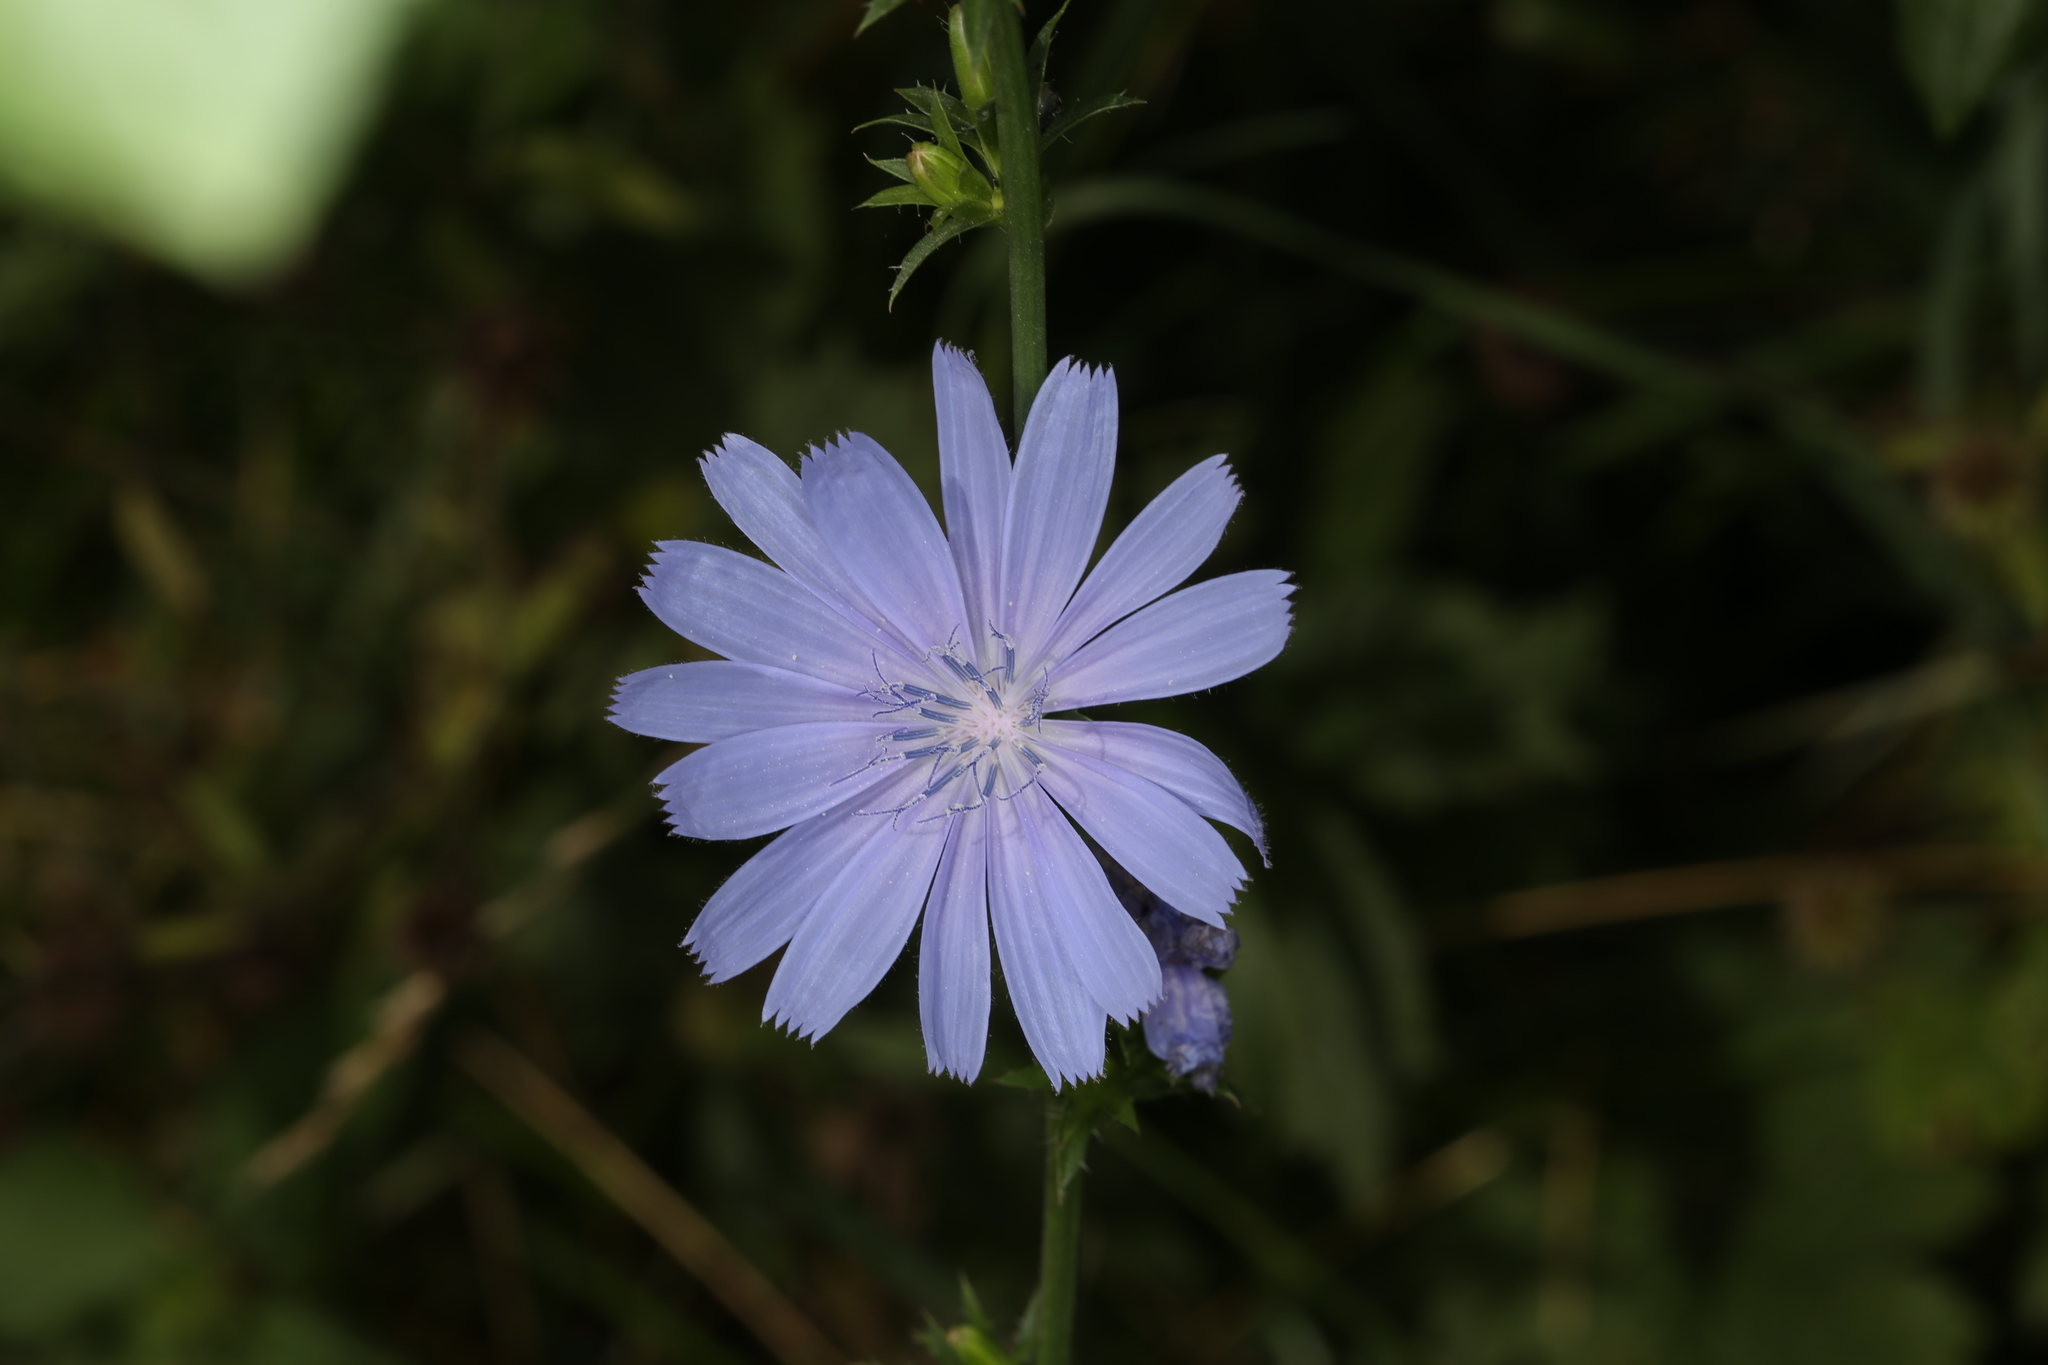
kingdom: Plantae
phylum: Tracheophyta
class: Magnoliopsida
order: Asterales
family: Asteraceae
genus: Cichorium
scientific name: Cichorium intybus
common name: Chicory
